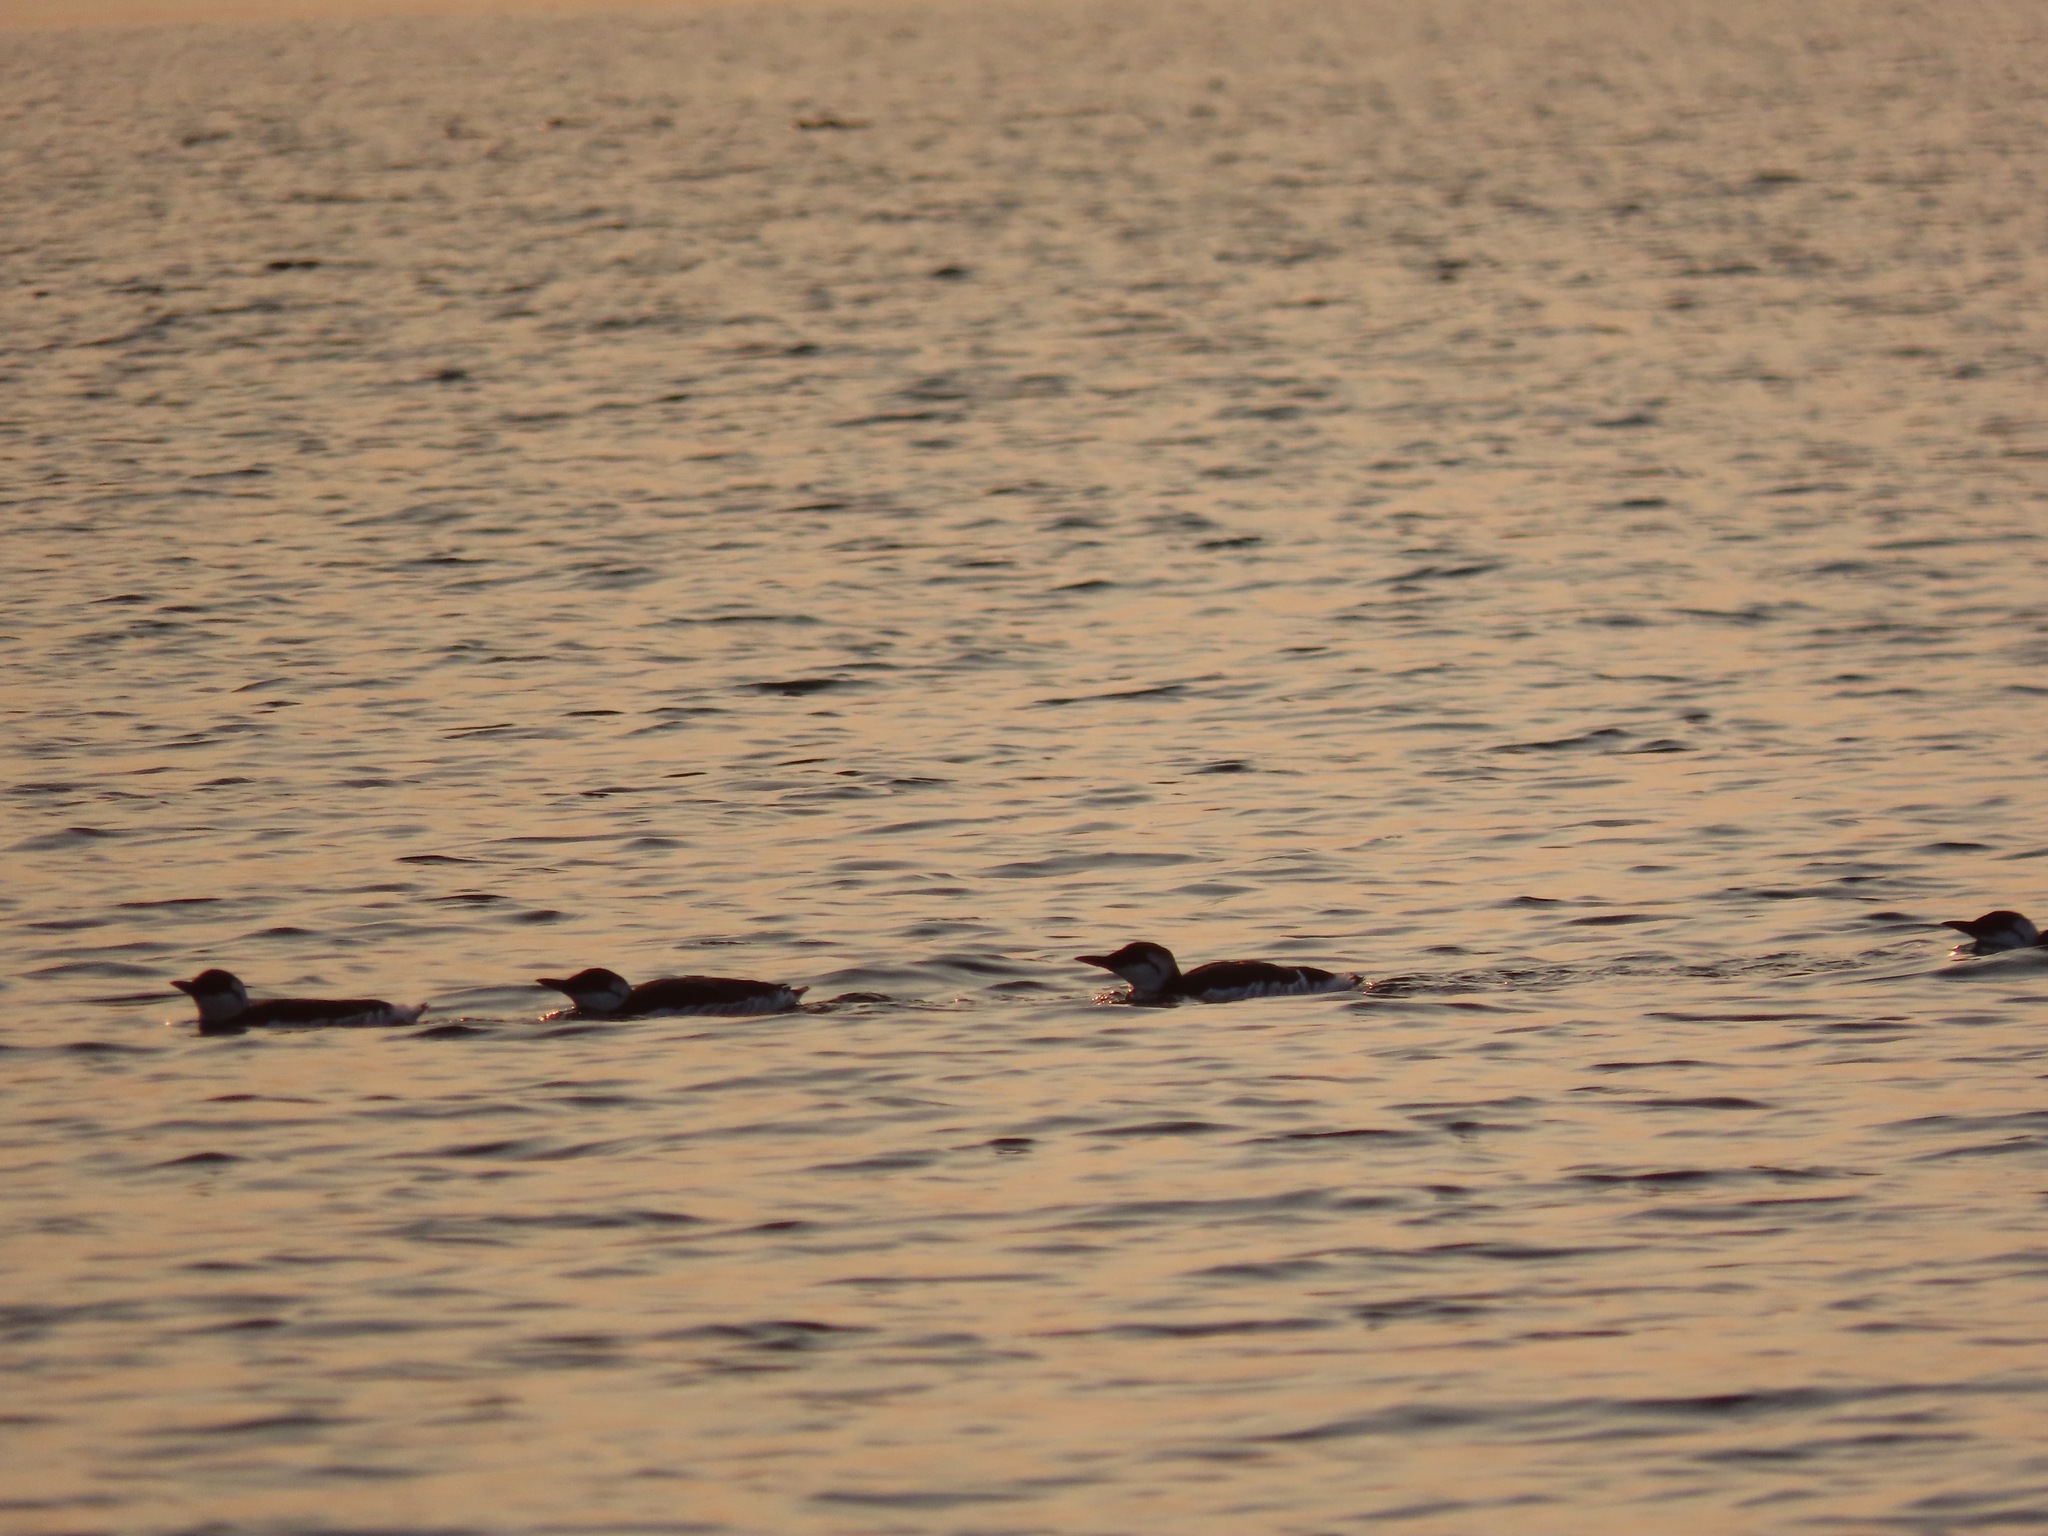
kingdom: Animalia
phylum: Chordata
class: Aves
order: Charadriiformes
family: Alcidae
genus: Uria
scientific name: Uria aalge
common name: Common murre
